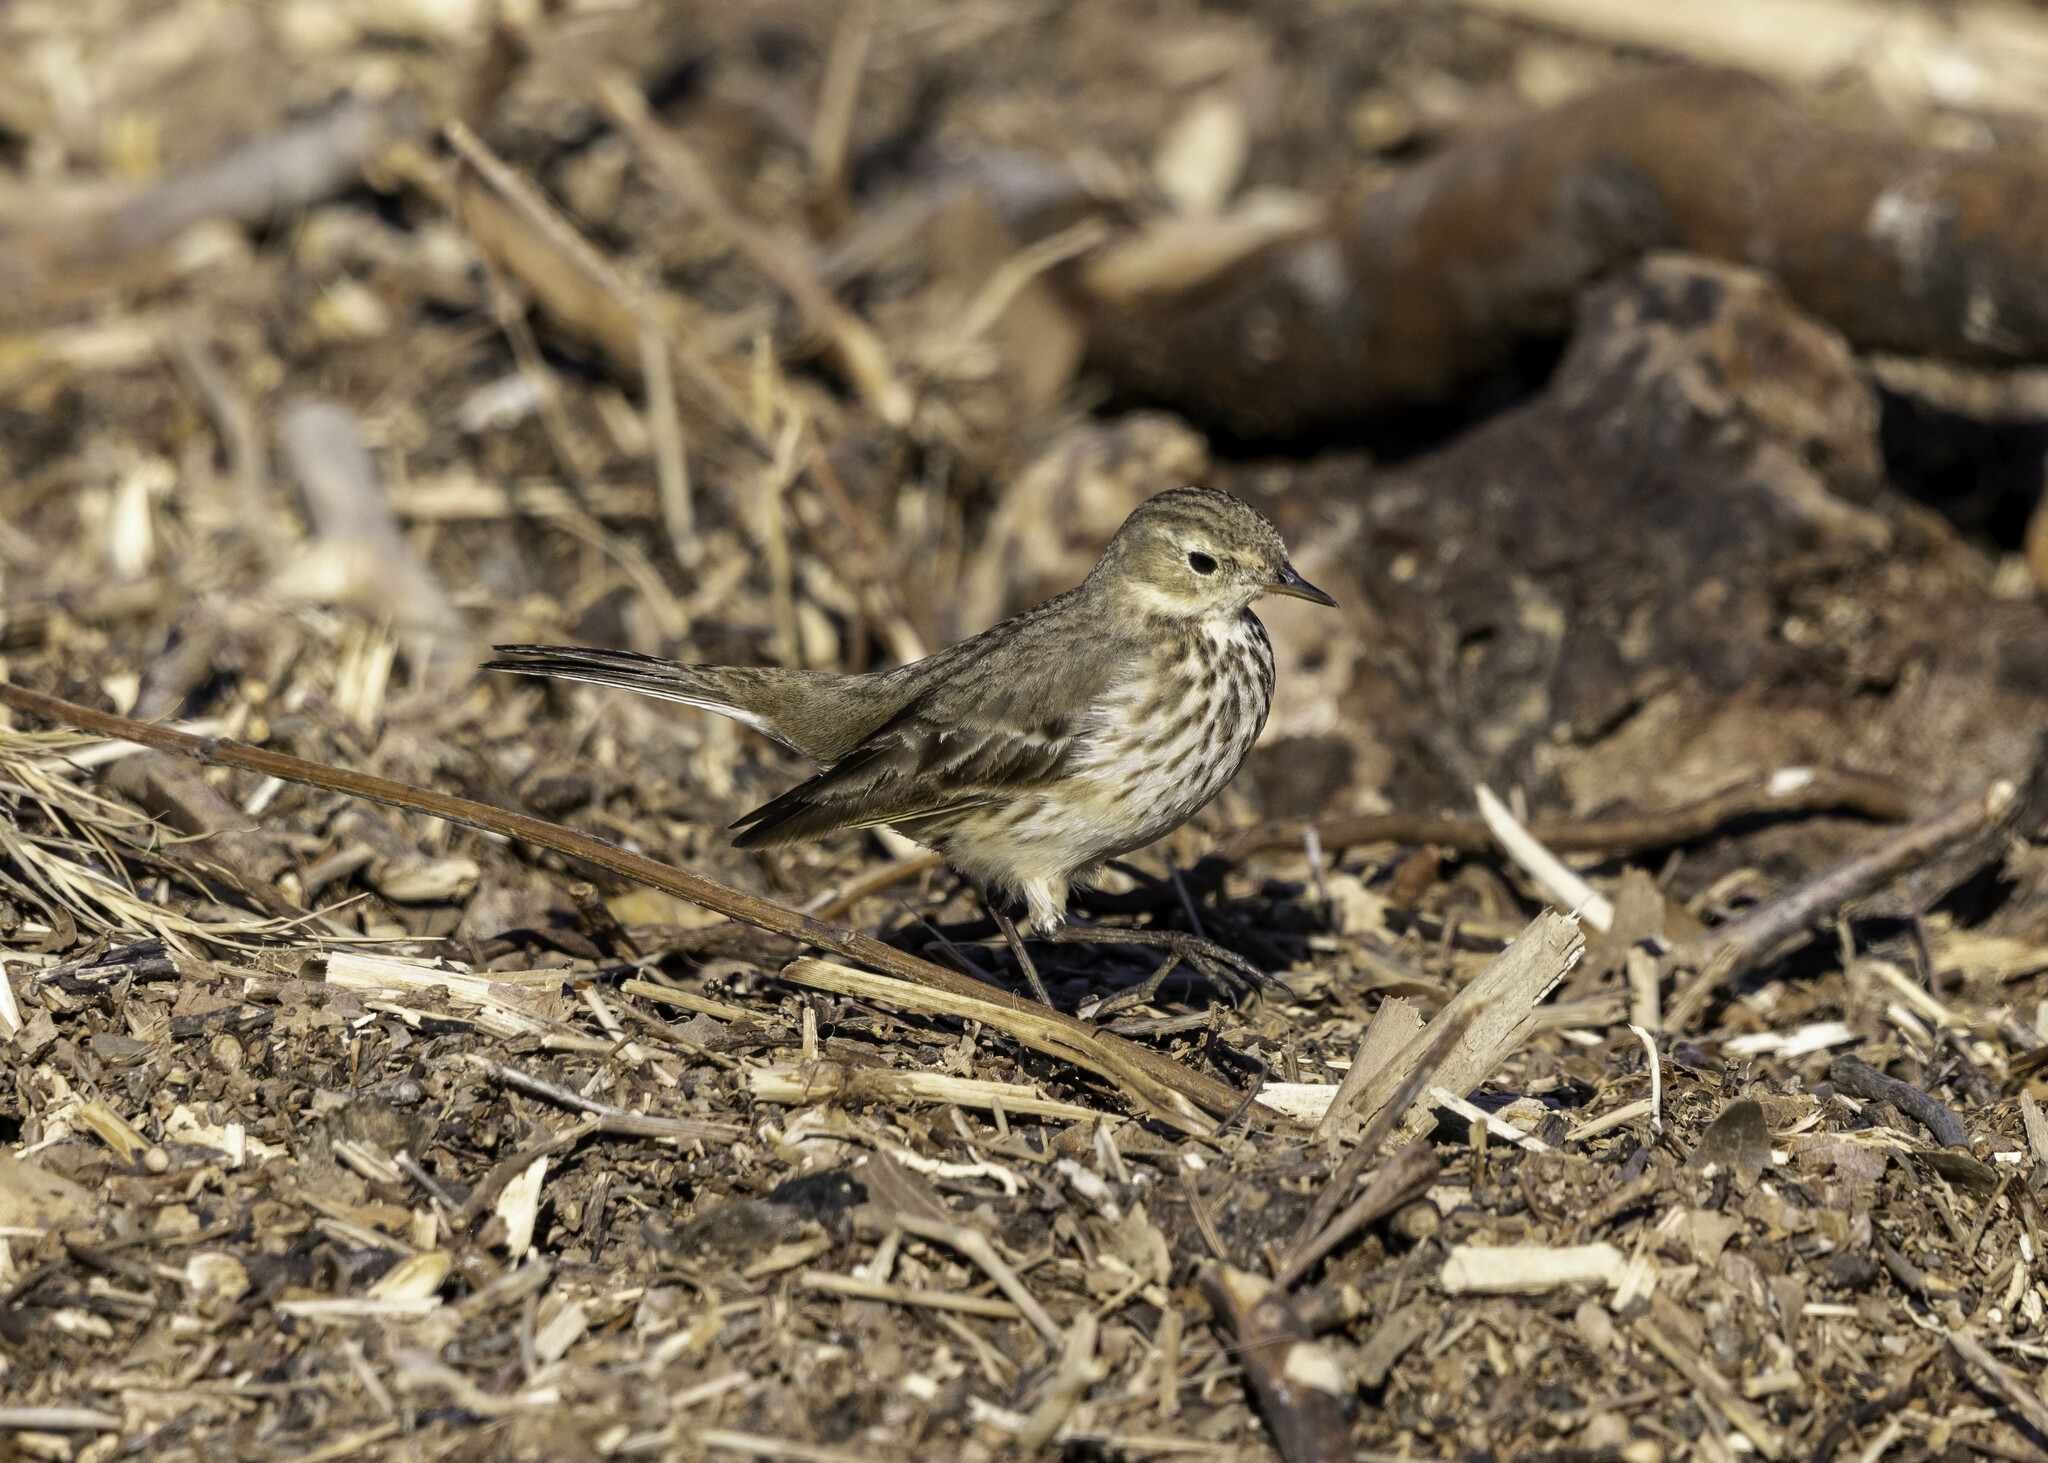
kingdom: Animalia
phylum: Chordata
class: Aves
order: Passeriformes
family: Motacillidae
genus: Anthus
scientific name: Anthus rubescens
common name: Buff-bellied pipit
